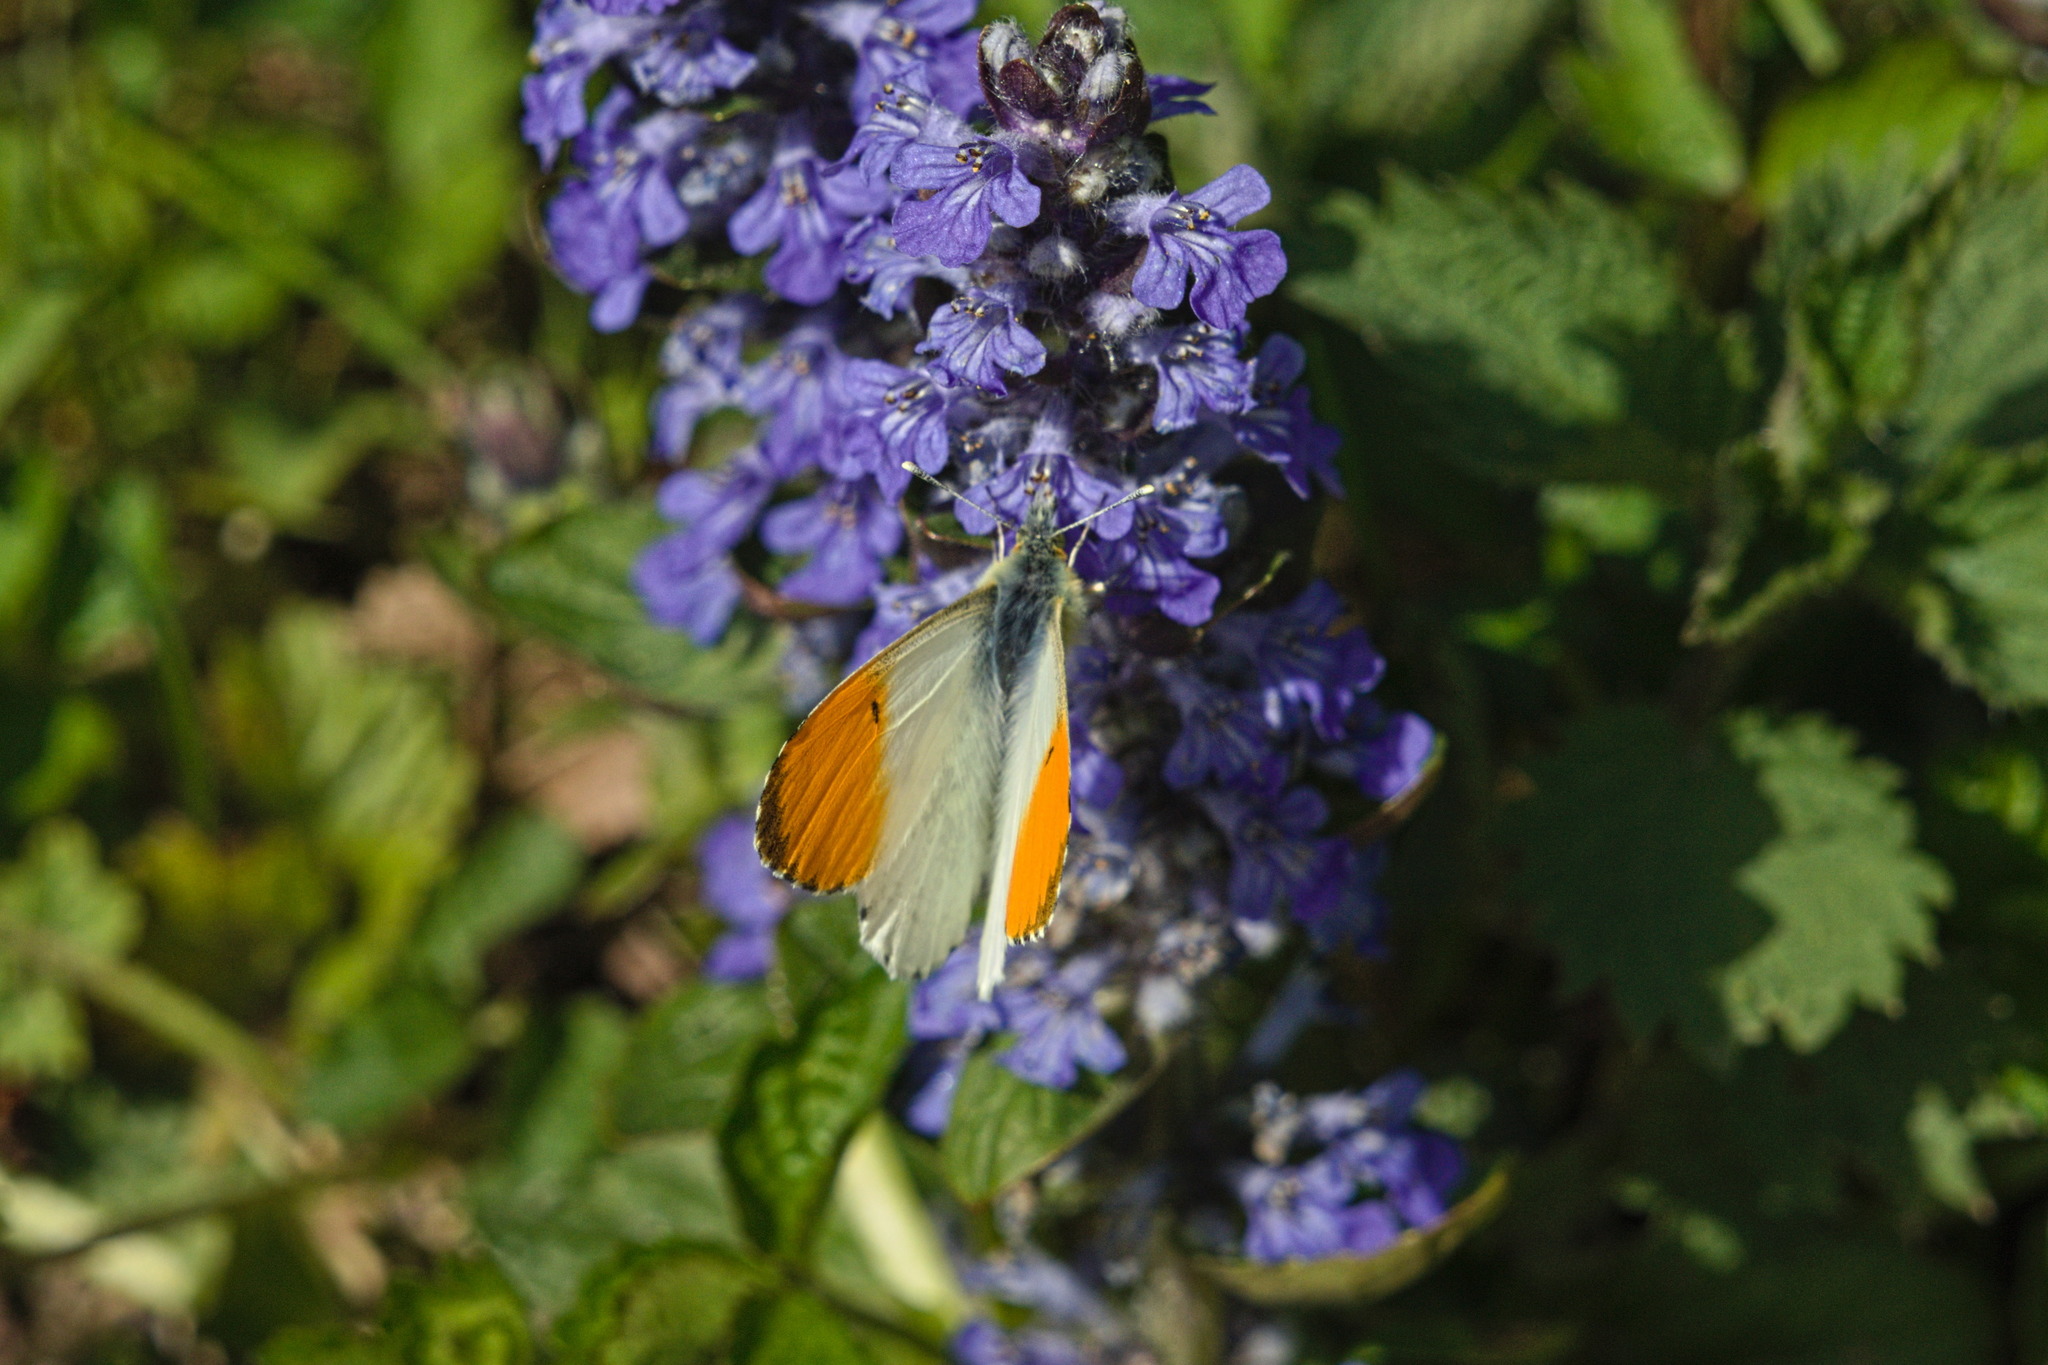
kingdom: Animalia
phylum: Arthropoda
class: Insecta
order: Lepidoptera
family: Pieridae
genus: Anthocharis
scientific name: Anthocharis cardamines
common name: Orange-tip
